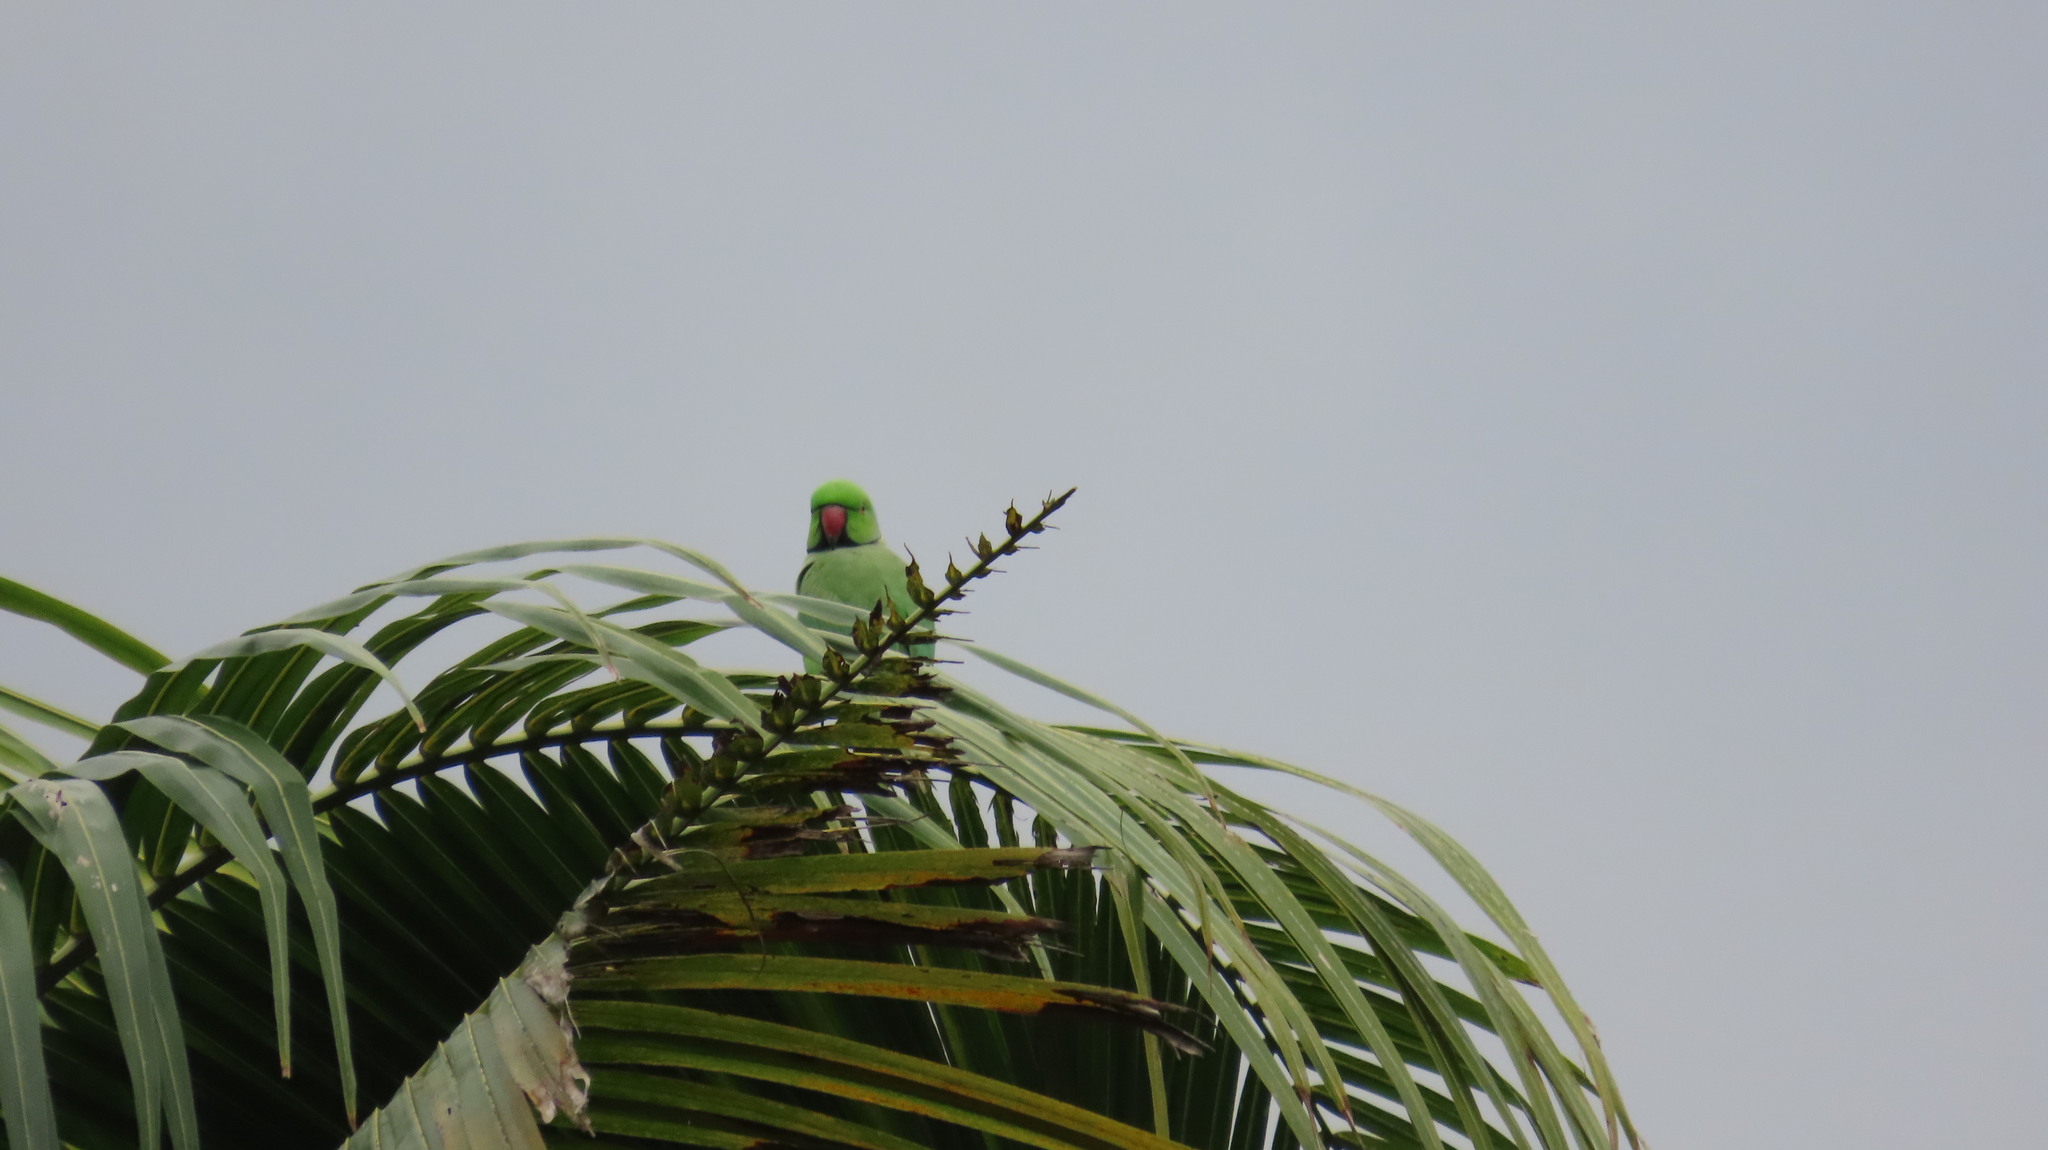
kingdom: Animalia
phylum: Chordata
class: Aves
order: Psittaciformes
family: Psittacidae
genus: Psittacula
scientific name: Psittacula krameri
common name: Rose-ringed parakeet
